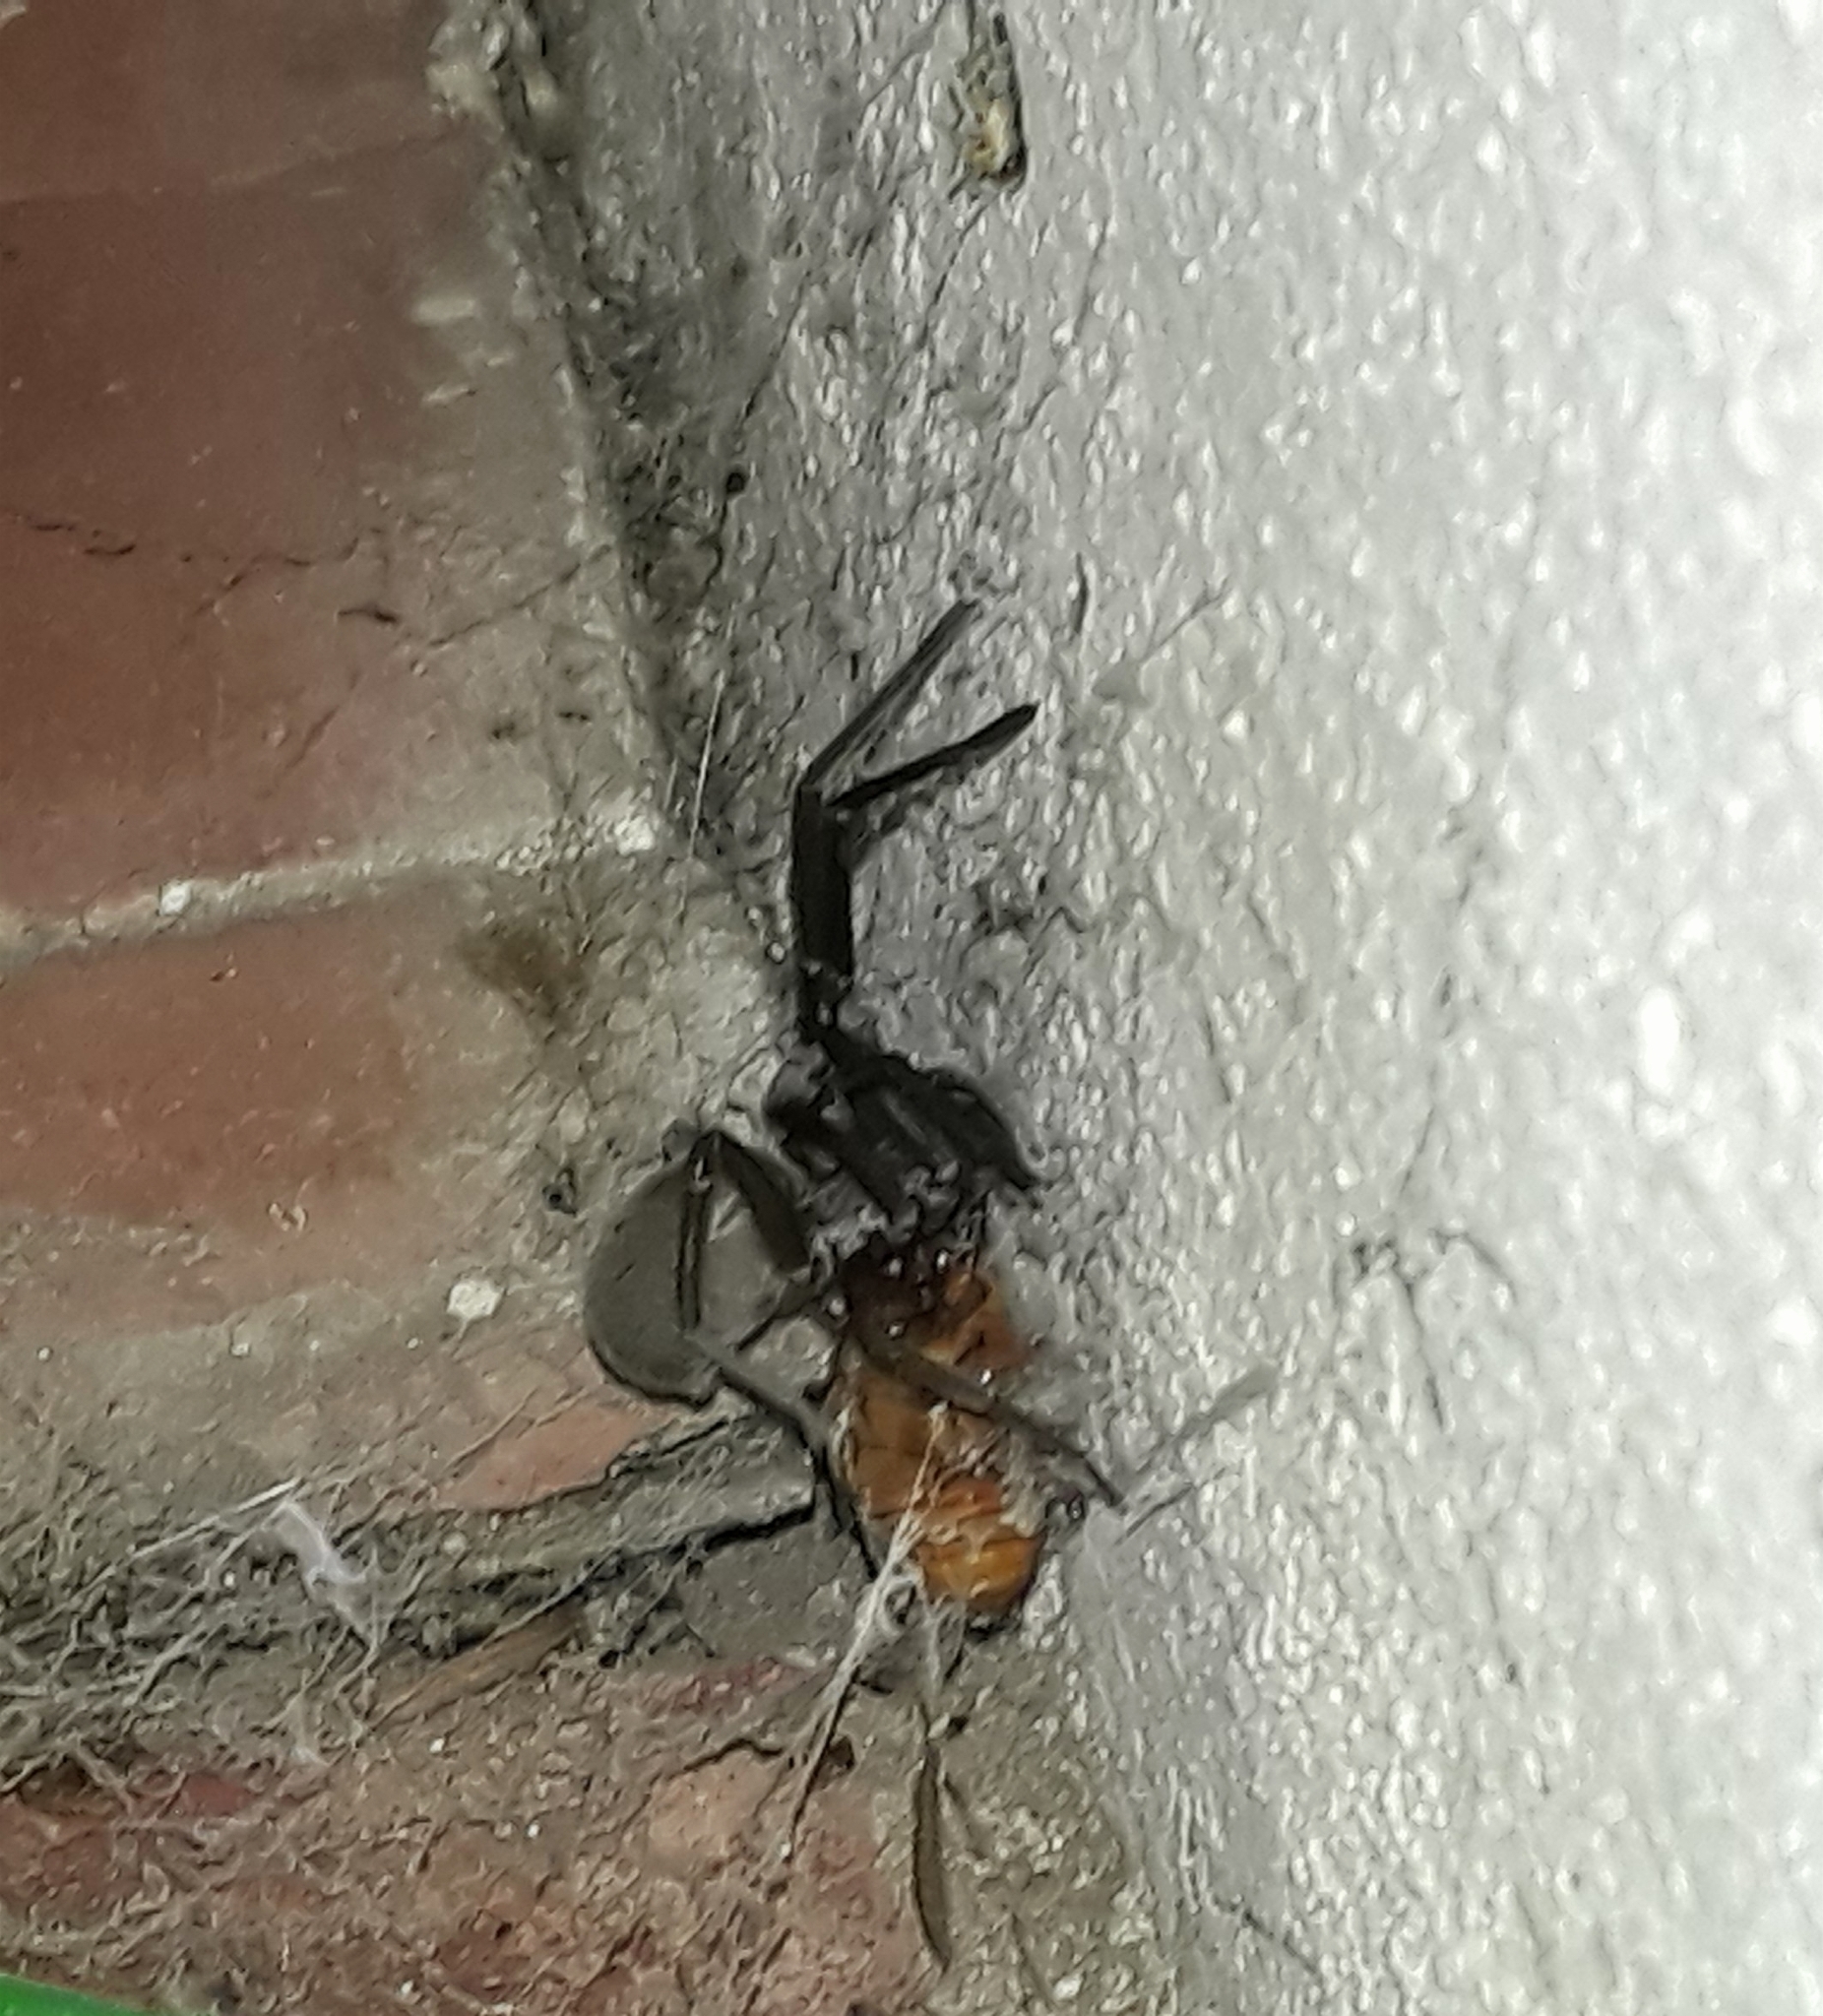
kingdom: Animalia
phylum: Arthropoda
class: Arachnida
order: Araneae
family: Filistatidae
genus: Kukulcania
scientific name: Kukulcania hibernalis
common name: Crevice weaver
